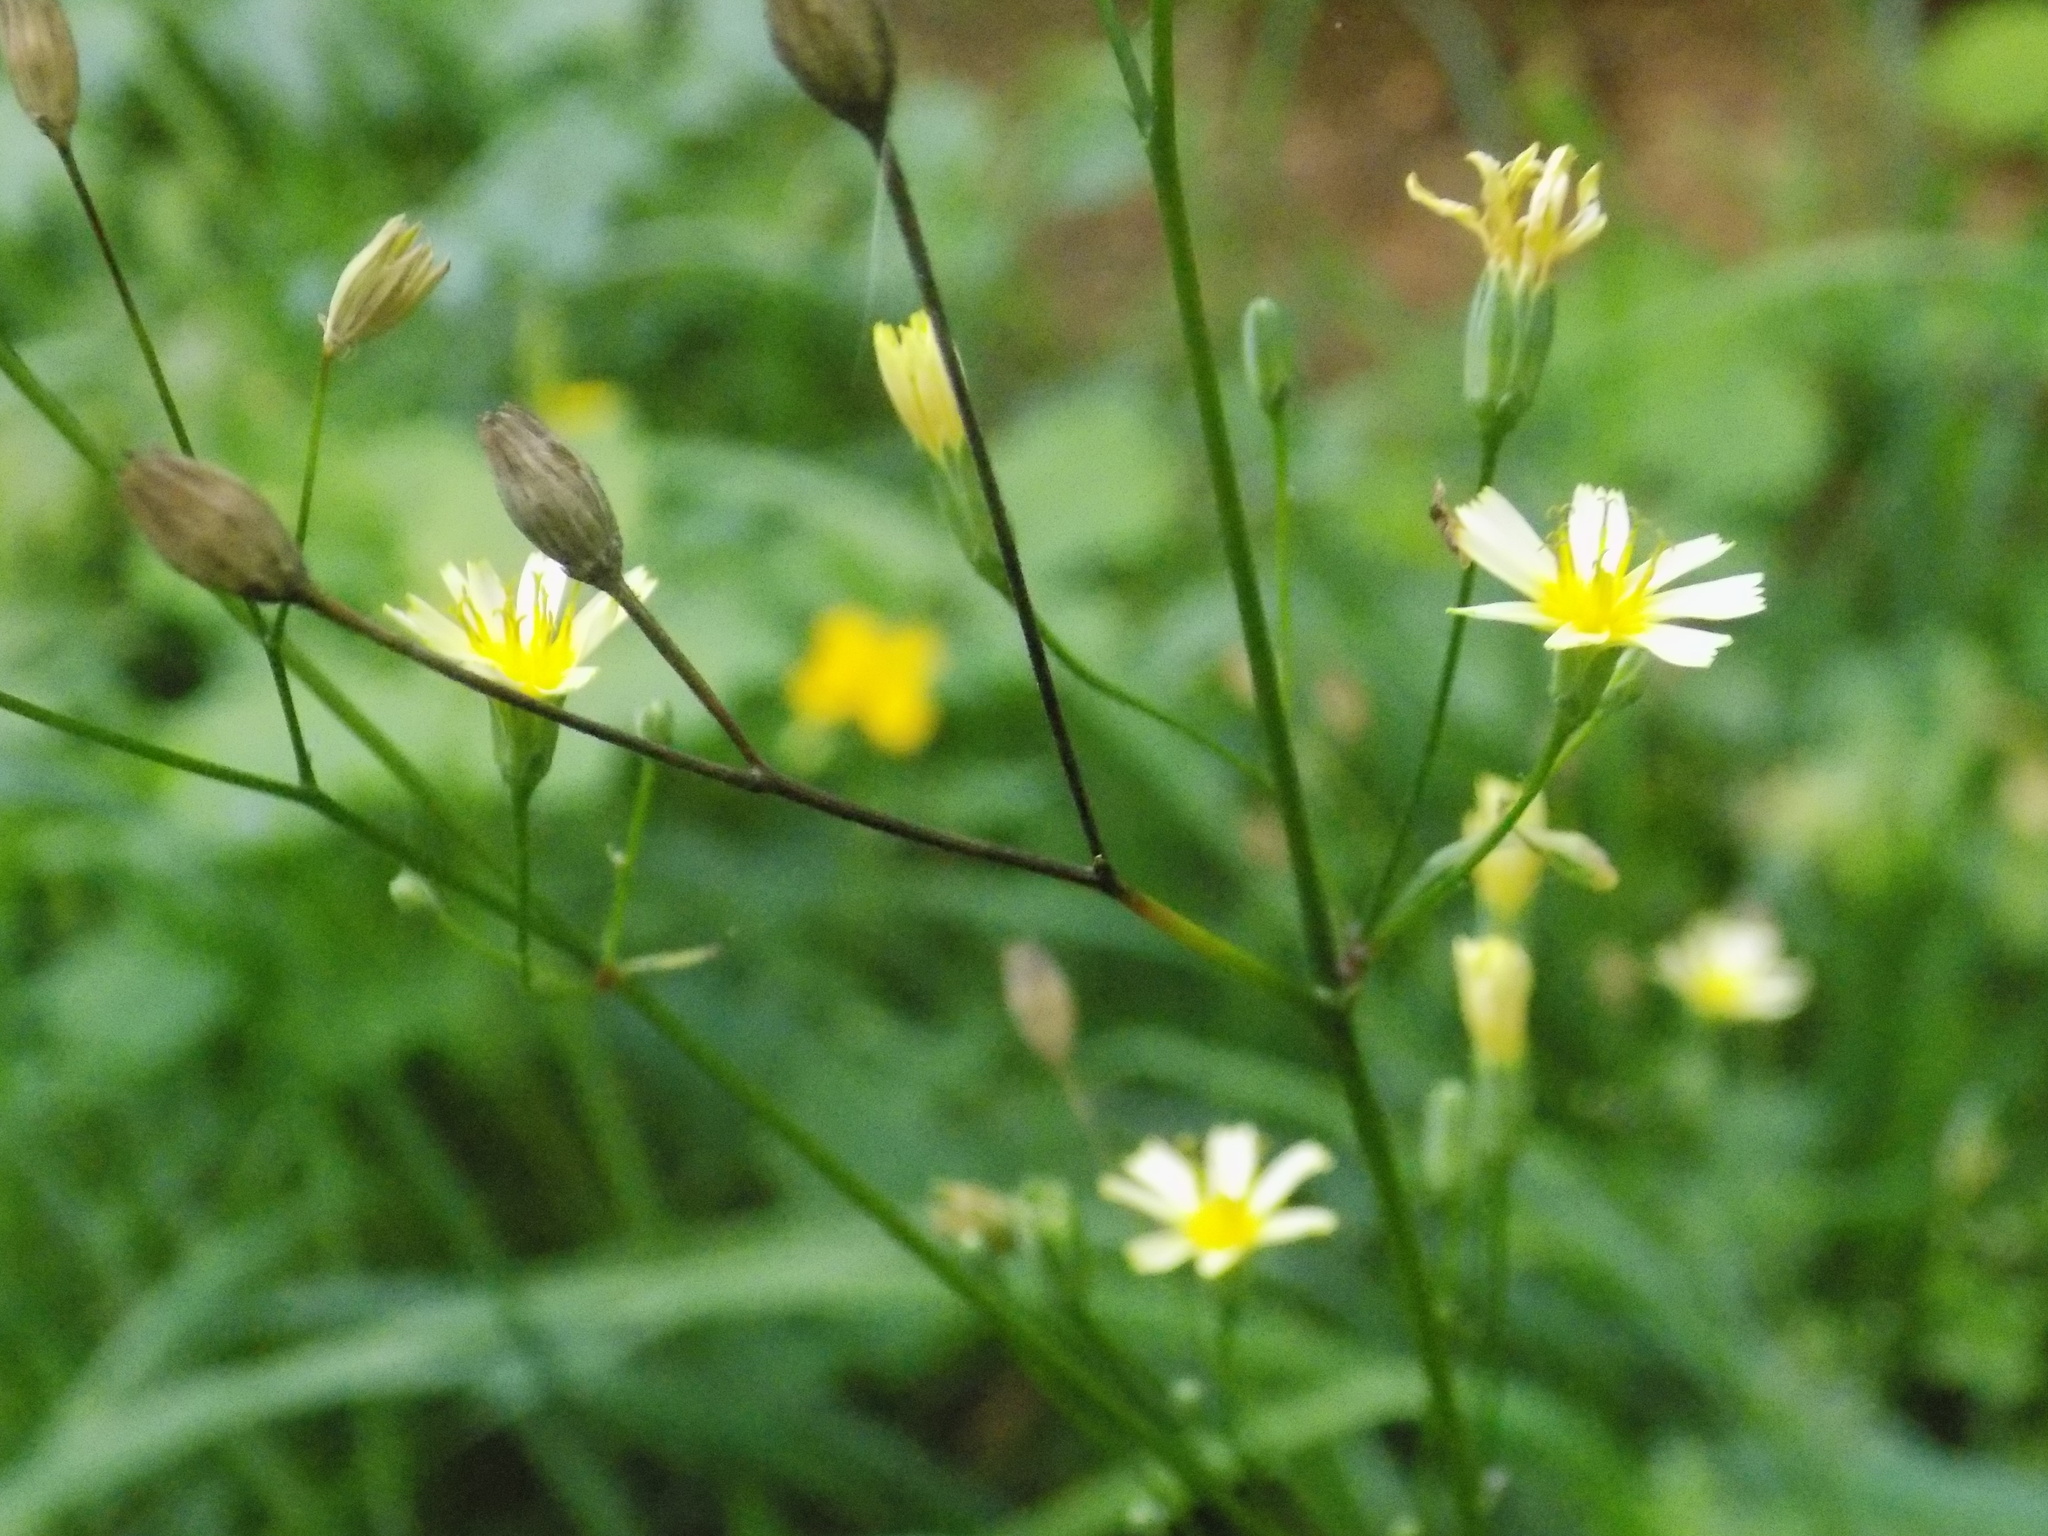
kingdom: Plantae
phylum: Tracheophyta
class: Magnoliopsida
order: Asterales
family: Asteraceae
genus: Lapsana
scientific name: Lapsana communis
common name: Nipplewort
